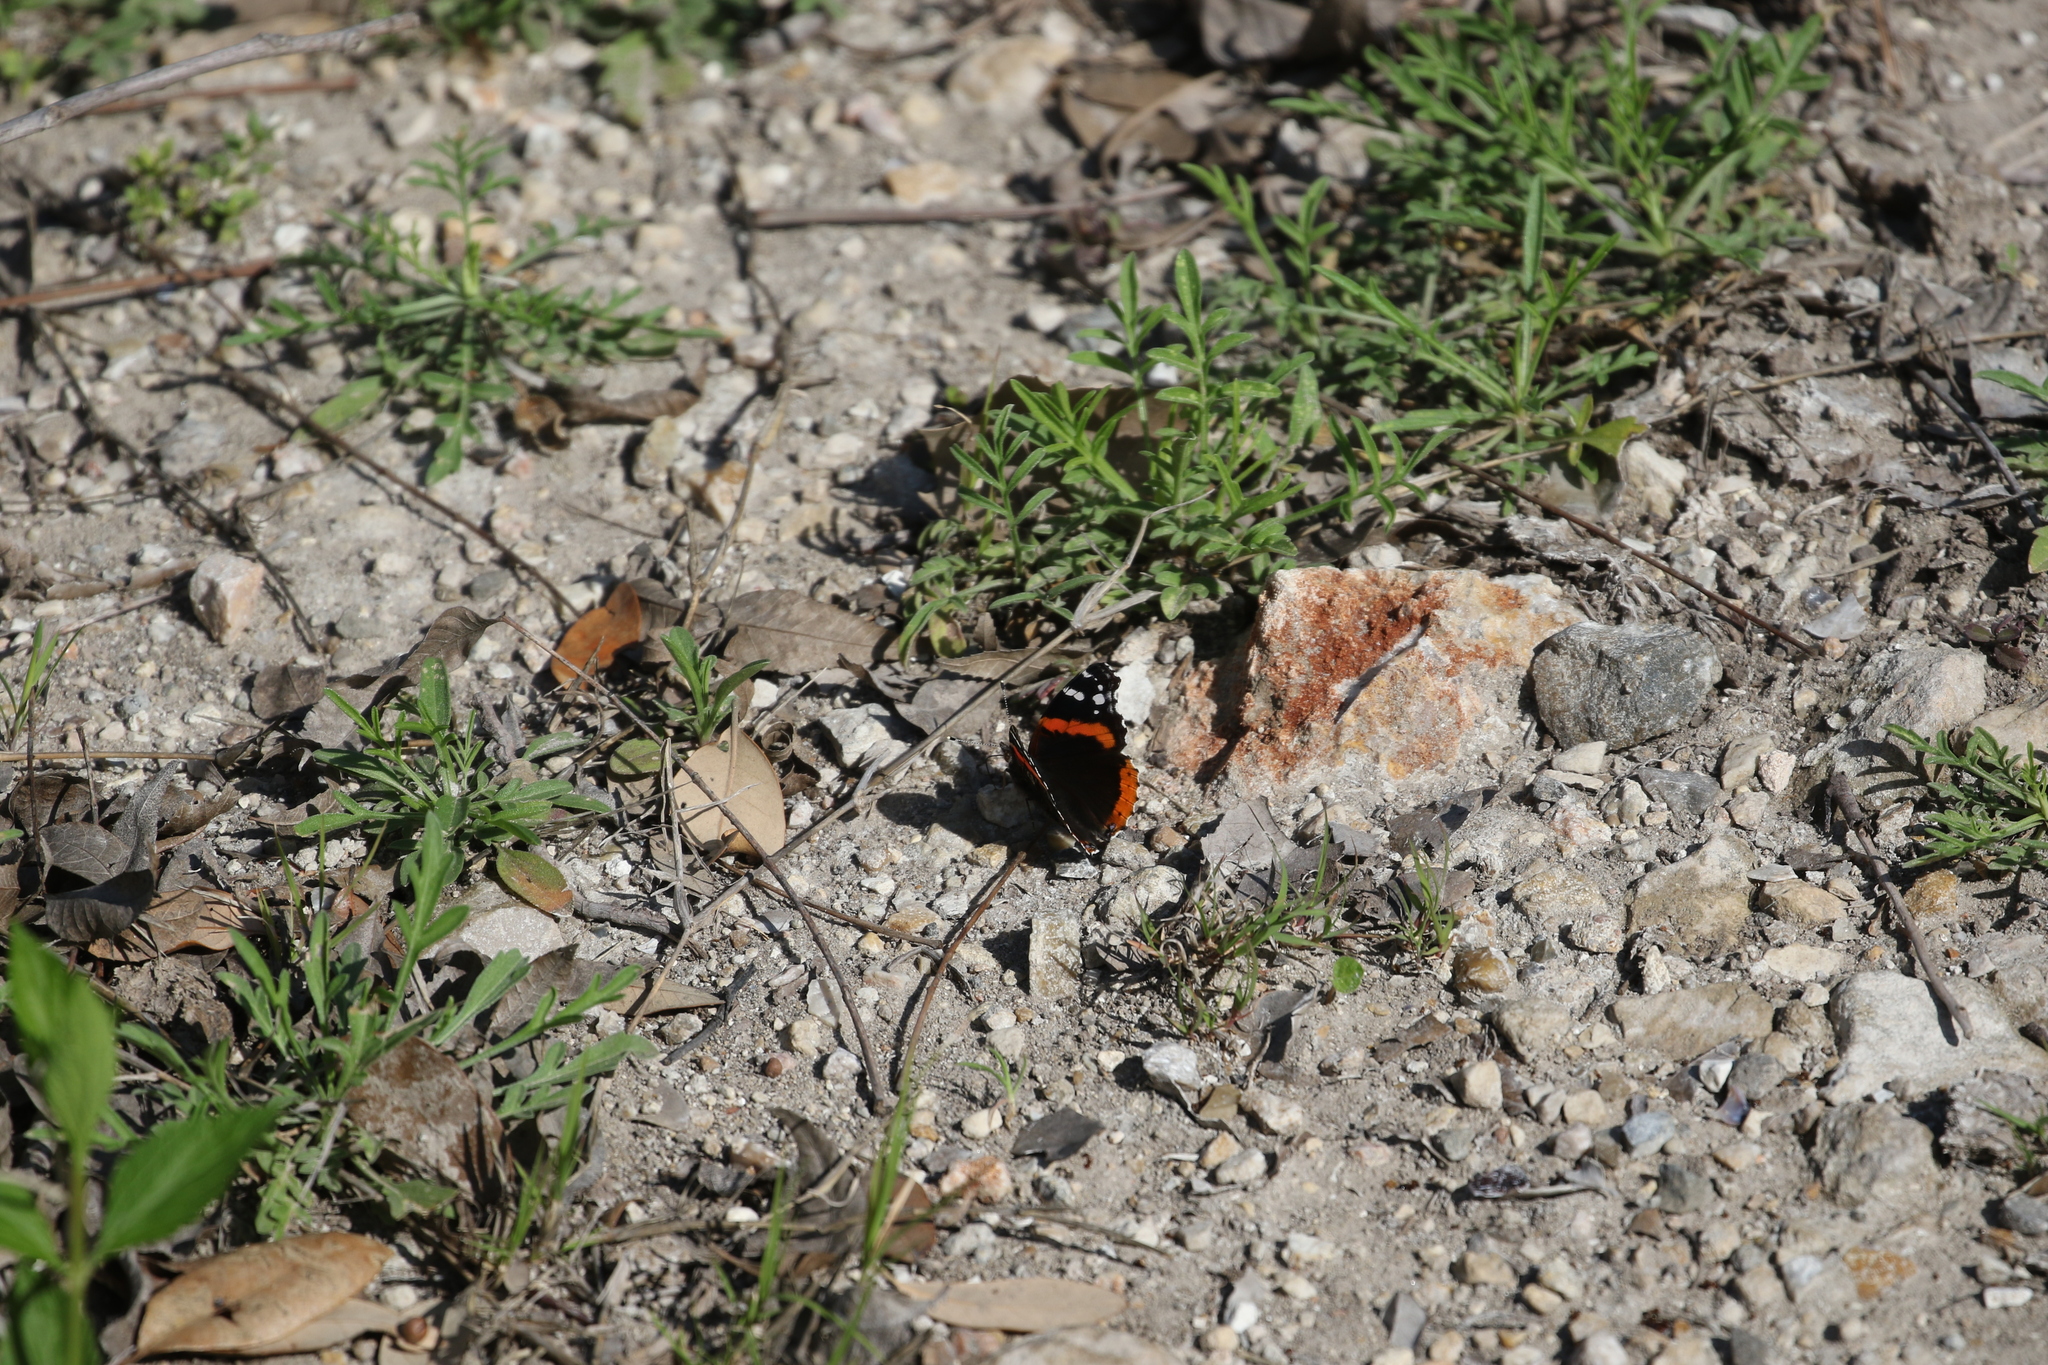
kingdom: Animalia
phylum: Arthropoda
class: Insecta
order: Lepidoptera
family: Nymphalidae
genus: Vanessa
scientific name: Vanessa atalanta
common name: Red admiral
